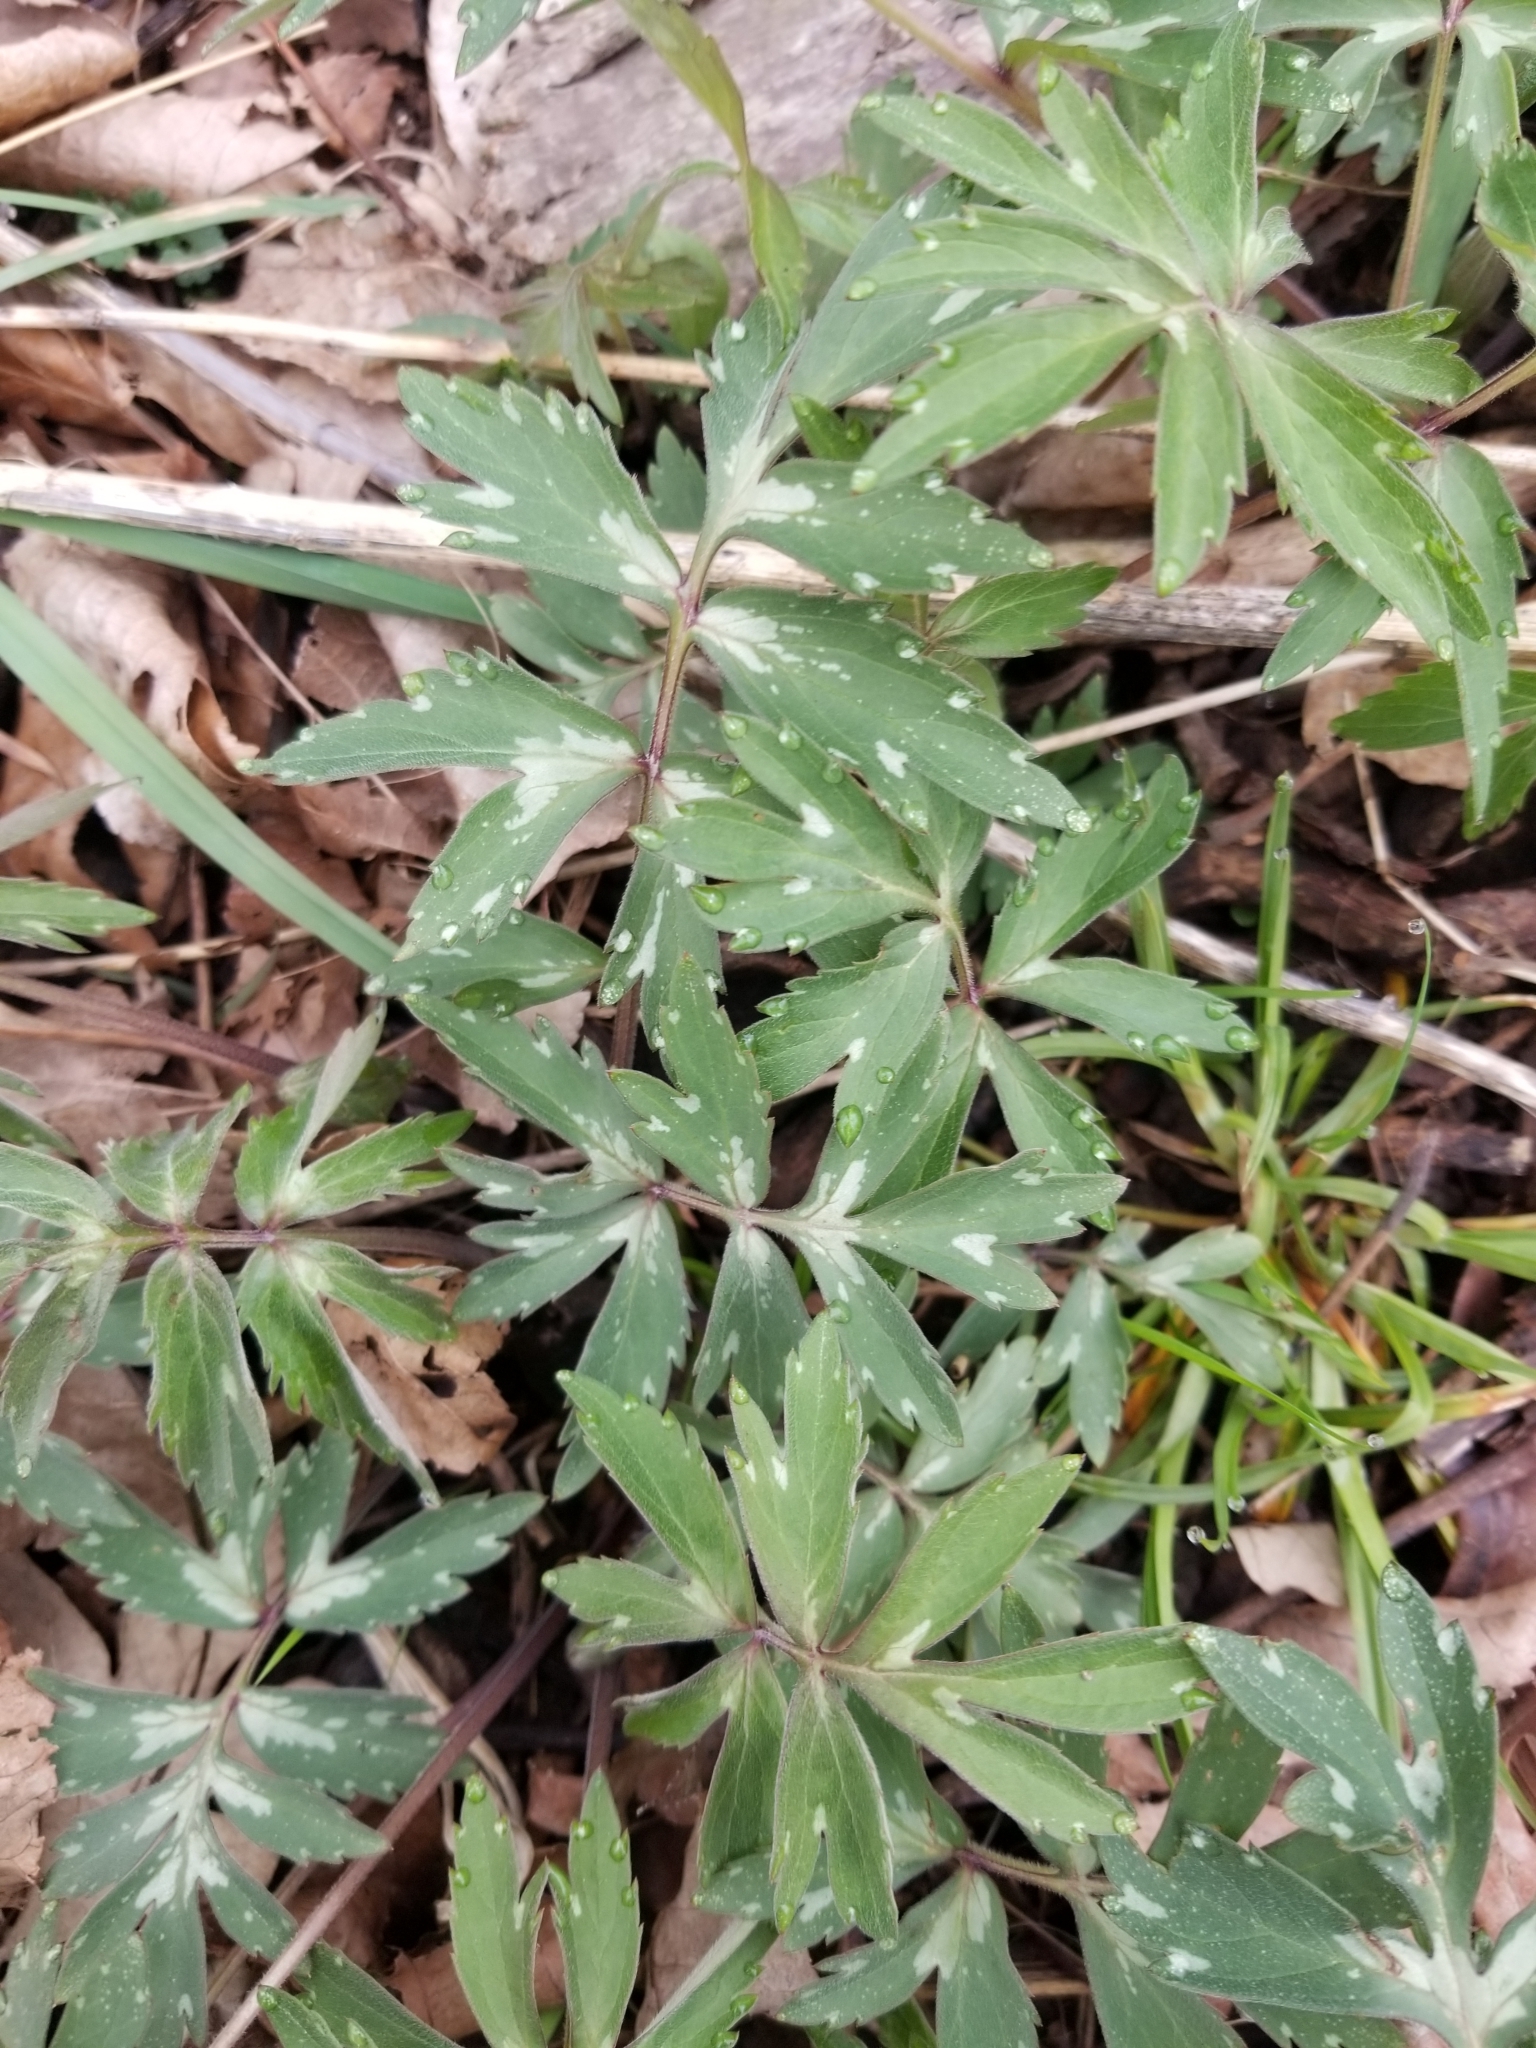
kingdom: Plantae
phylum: Tracheophyta
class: Magnoliopsida
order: Boraginales
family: Hydrophyllaceae
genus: Hydrophyllum
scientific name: Hydrophyllum virginianum
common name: Virginia waterleaf
